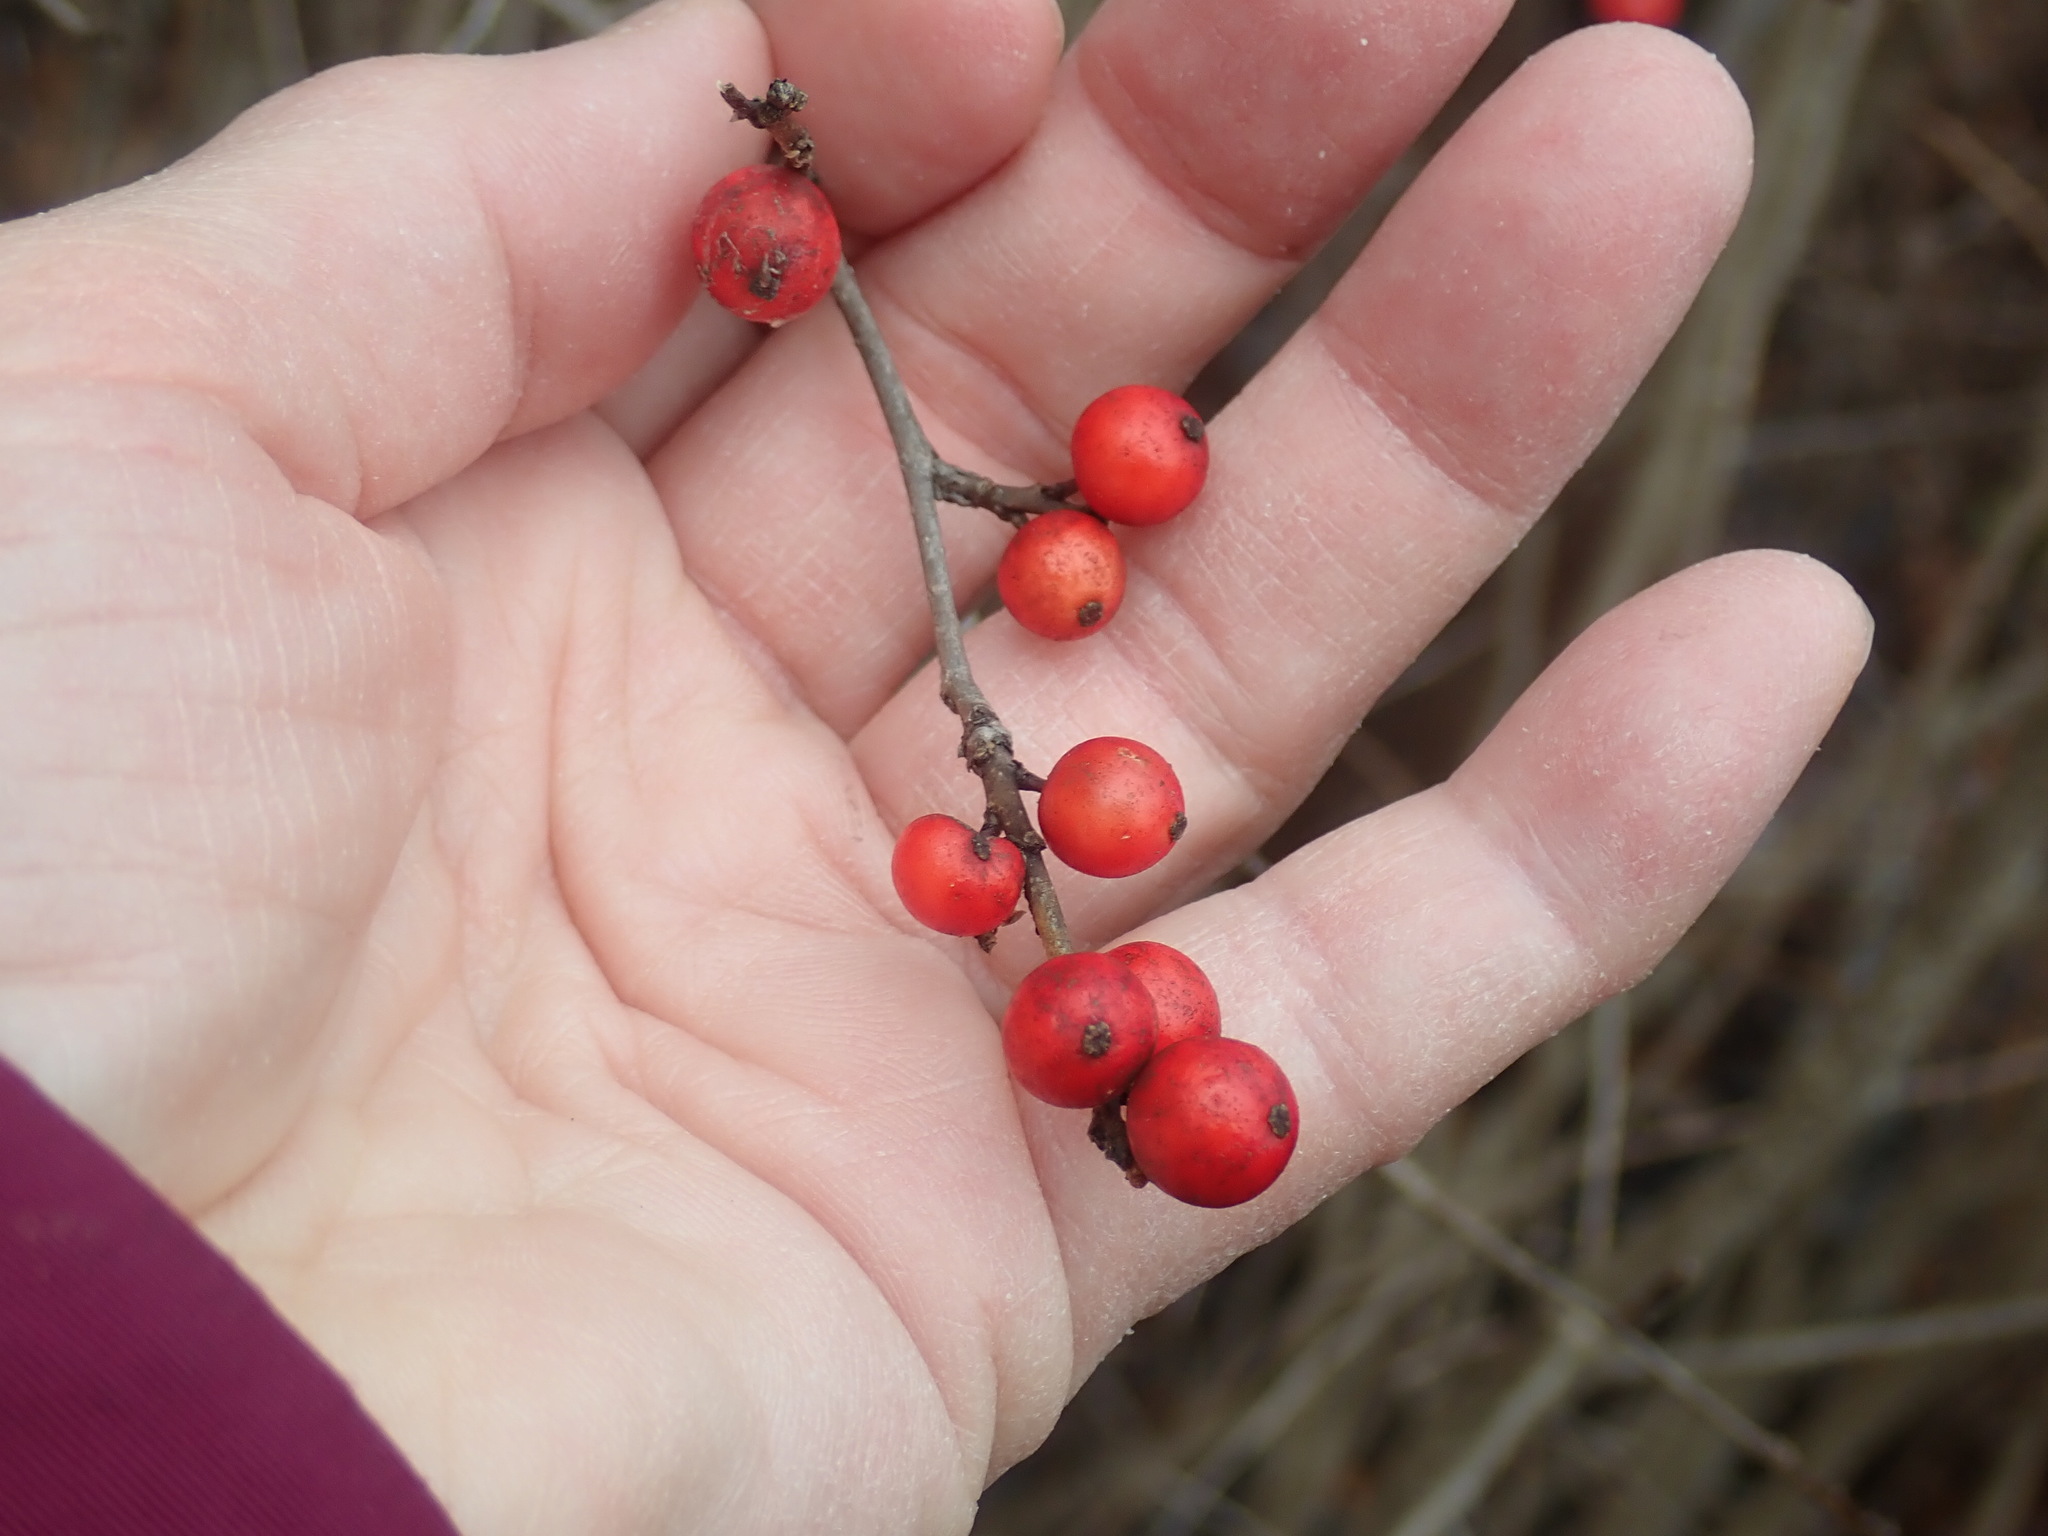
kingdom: Plantae
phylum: Tracheophyta
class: Magnoliopsida
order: Aquifoliales
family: Aquifoliaceae
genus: Ilex
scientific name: Ilex verticillata
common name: Virginia winterberry
